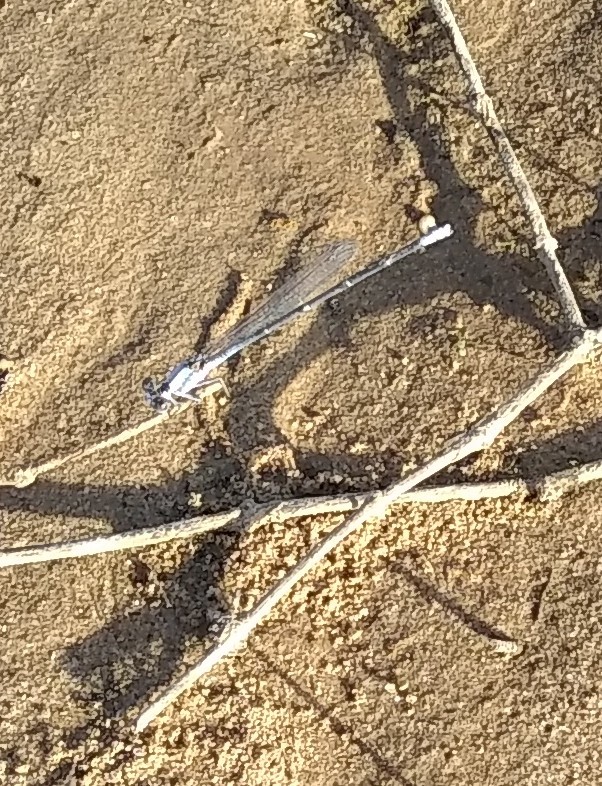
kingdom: Animalia
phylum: Arthropoda
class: Insecta
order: Odonata
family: Coenagrionidae
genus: Argia
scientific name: Argia moesta
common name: Powdered dancer
